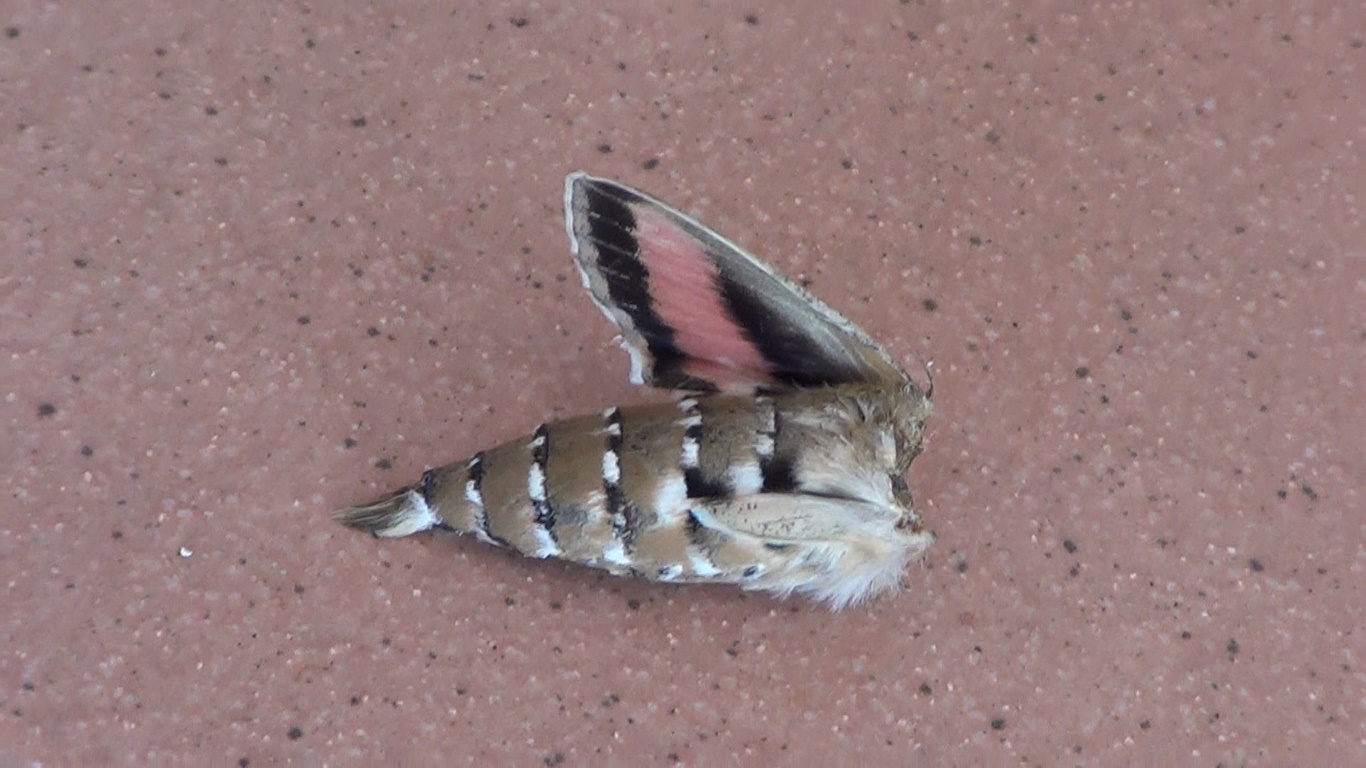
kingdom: Animalia
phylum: Arthropoda
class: Insecta
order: Lepidoptera
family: Sphingidae
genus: Hyles
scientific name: Hyles livornica
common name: Striped hawk-moth
